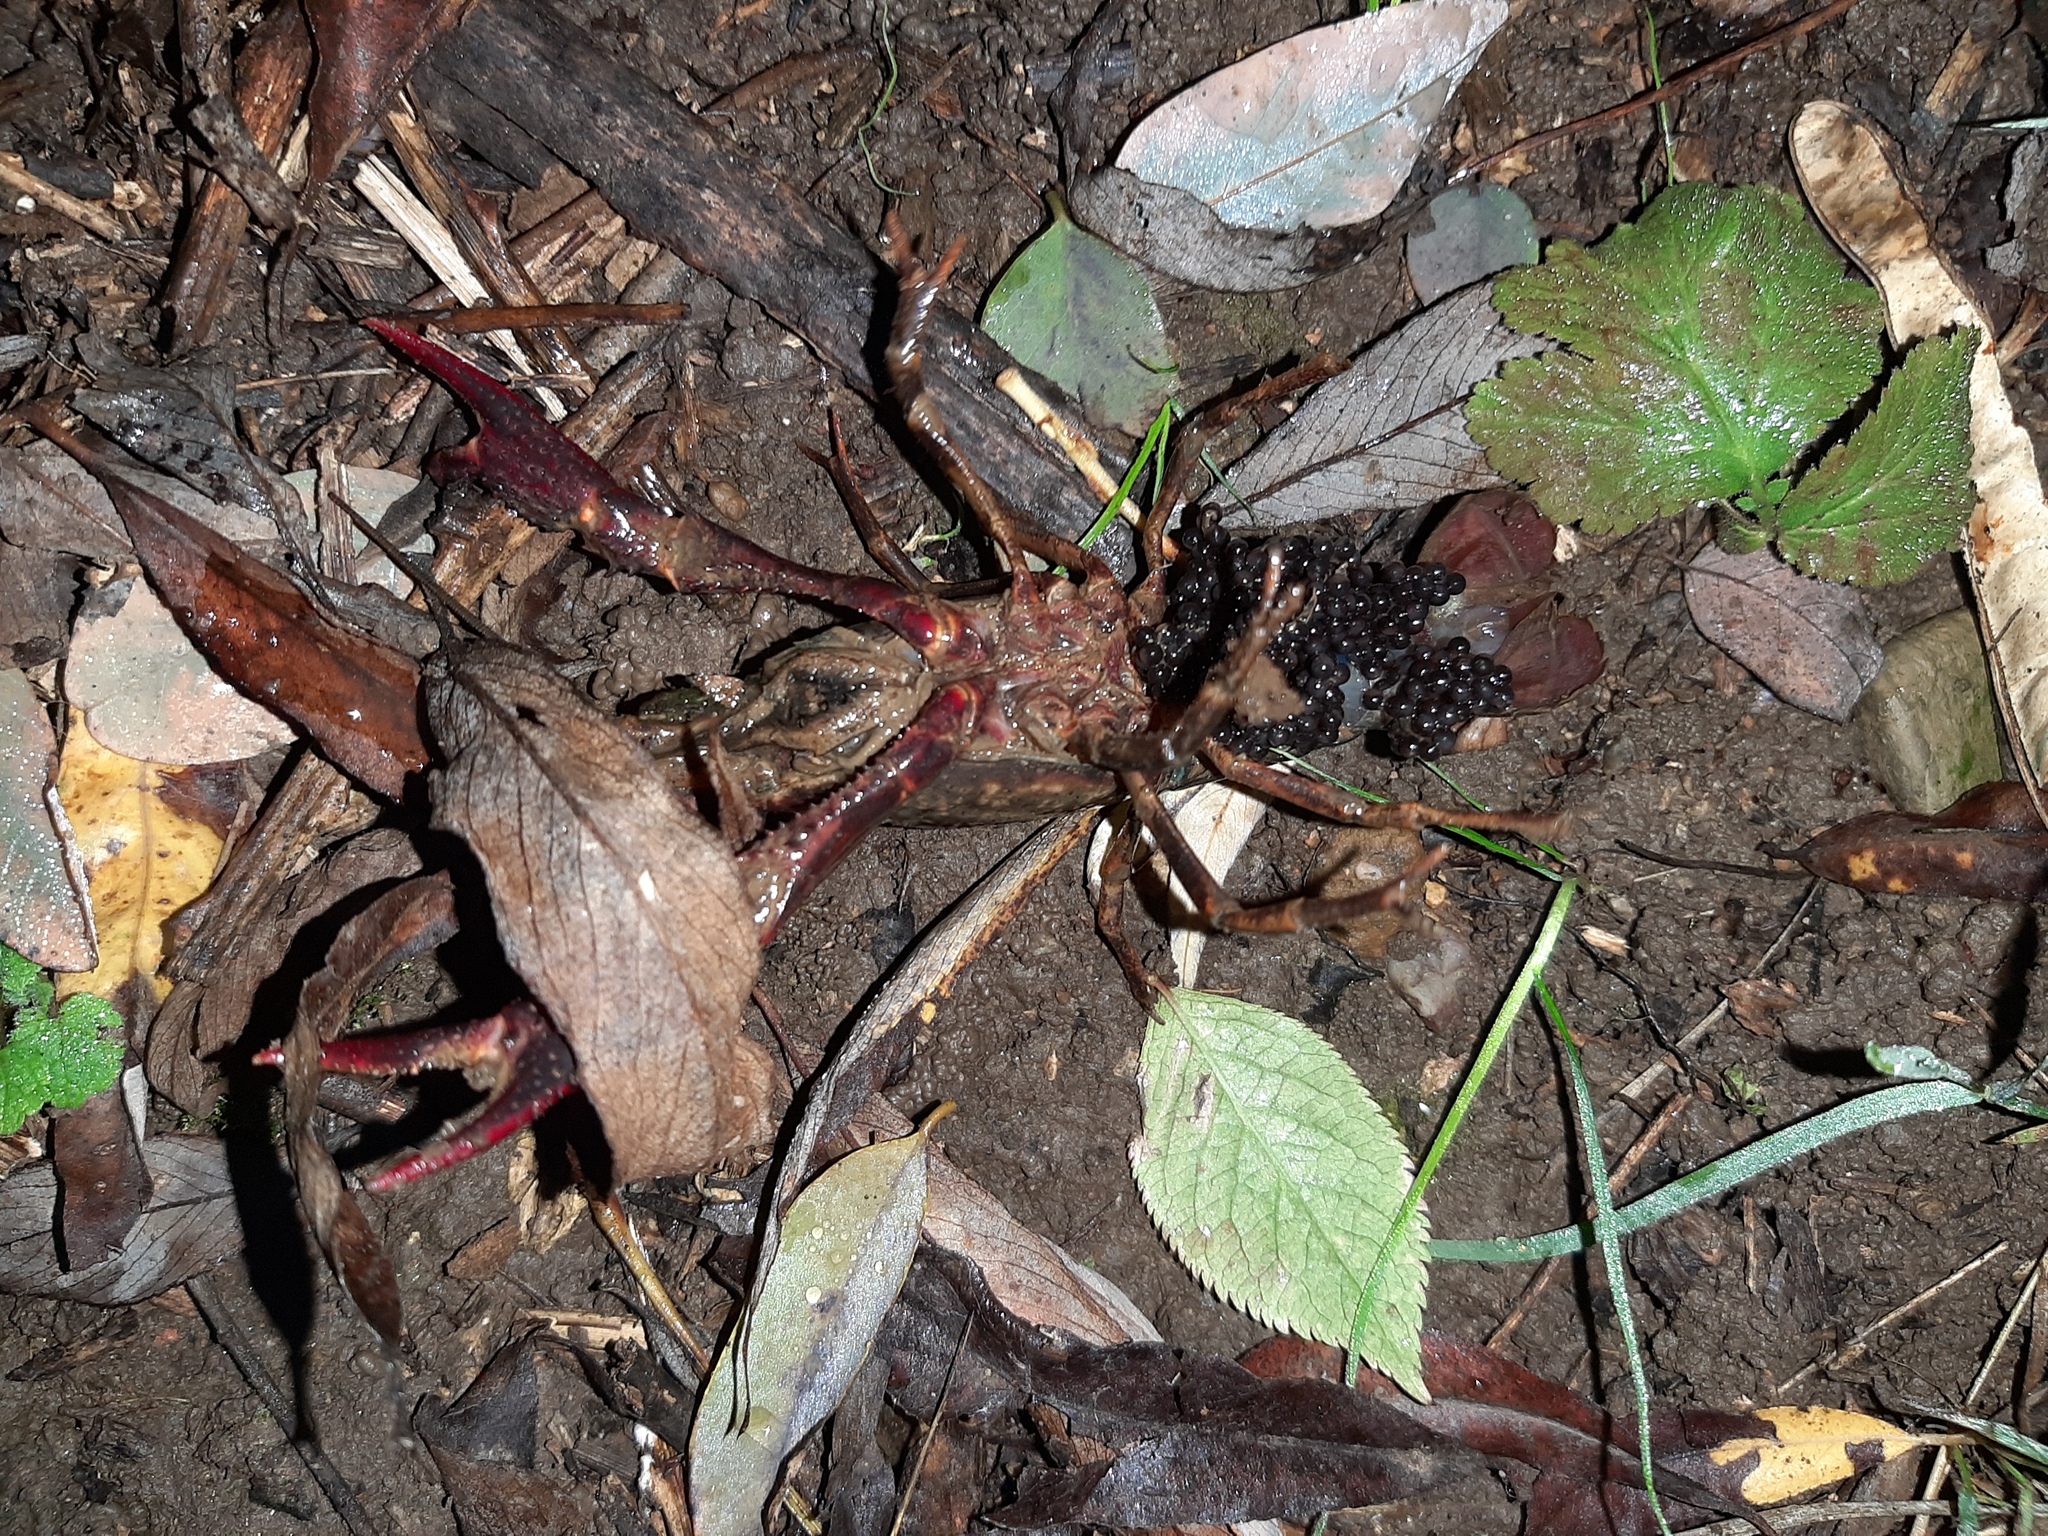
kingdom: Animalia
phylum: Arthropoda
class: Malacostraca
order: Decapoda
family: Cambaridae
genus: Procambarus
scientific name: Procambarus clarkii
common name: Red swamp crayfish
